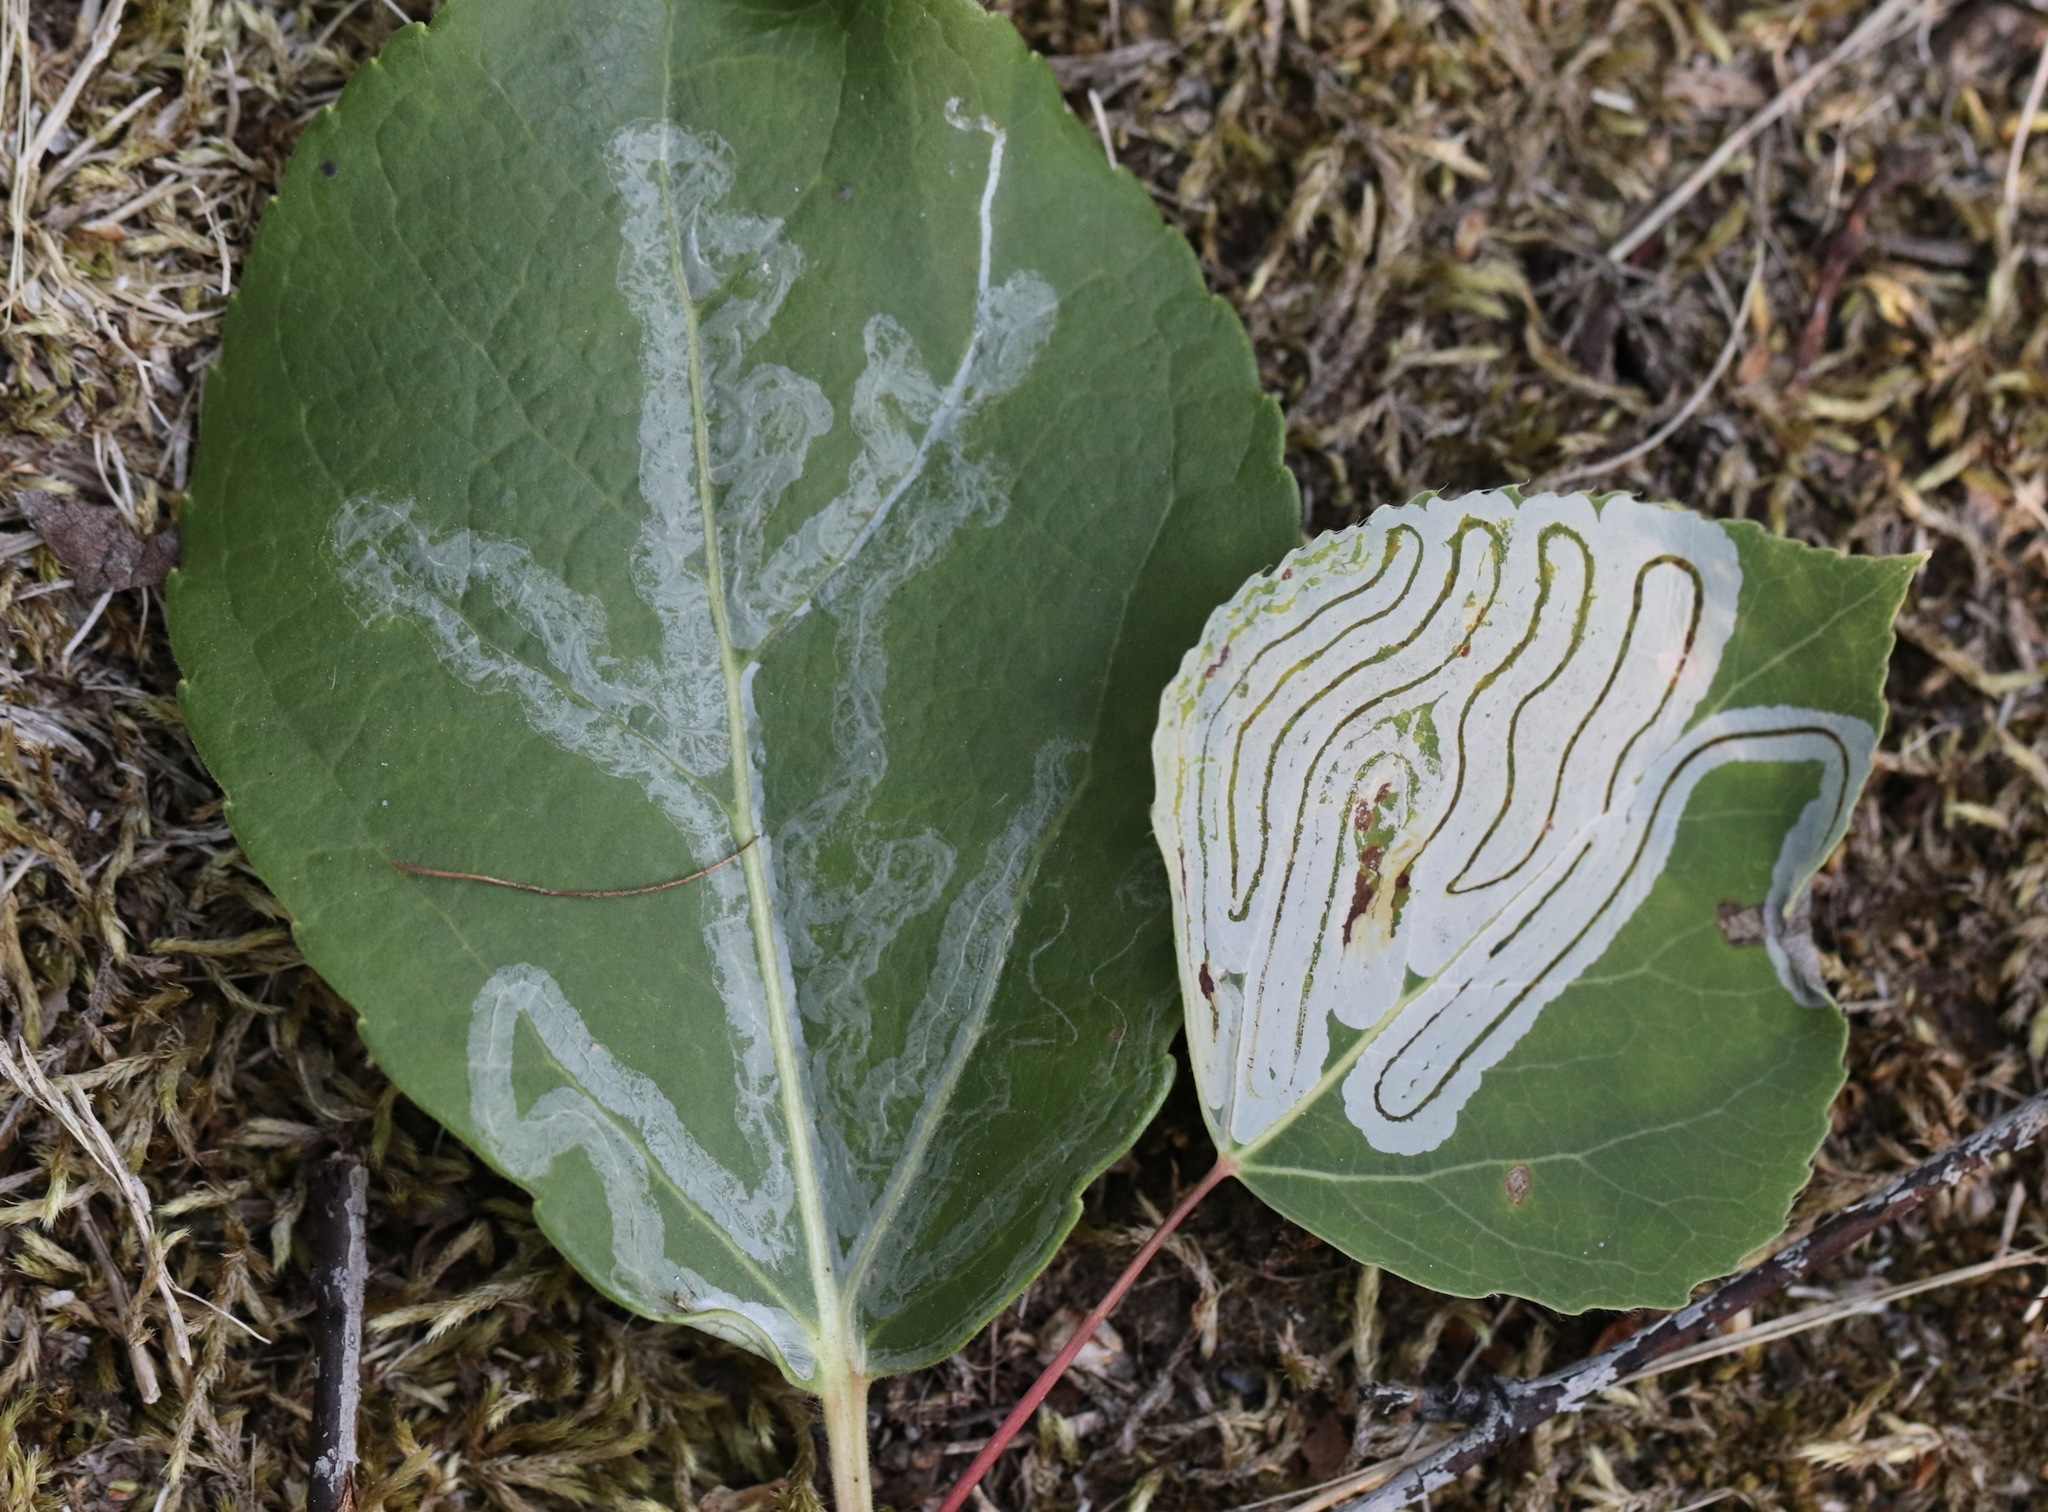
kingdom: Animalia
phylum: Arthropoda
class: Insecta
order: Lepidoptera
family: Gracillariidae
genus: Phyllocnistis
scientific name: Phyllocnistis populiella
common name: Aspen serpentine leafminer moth
